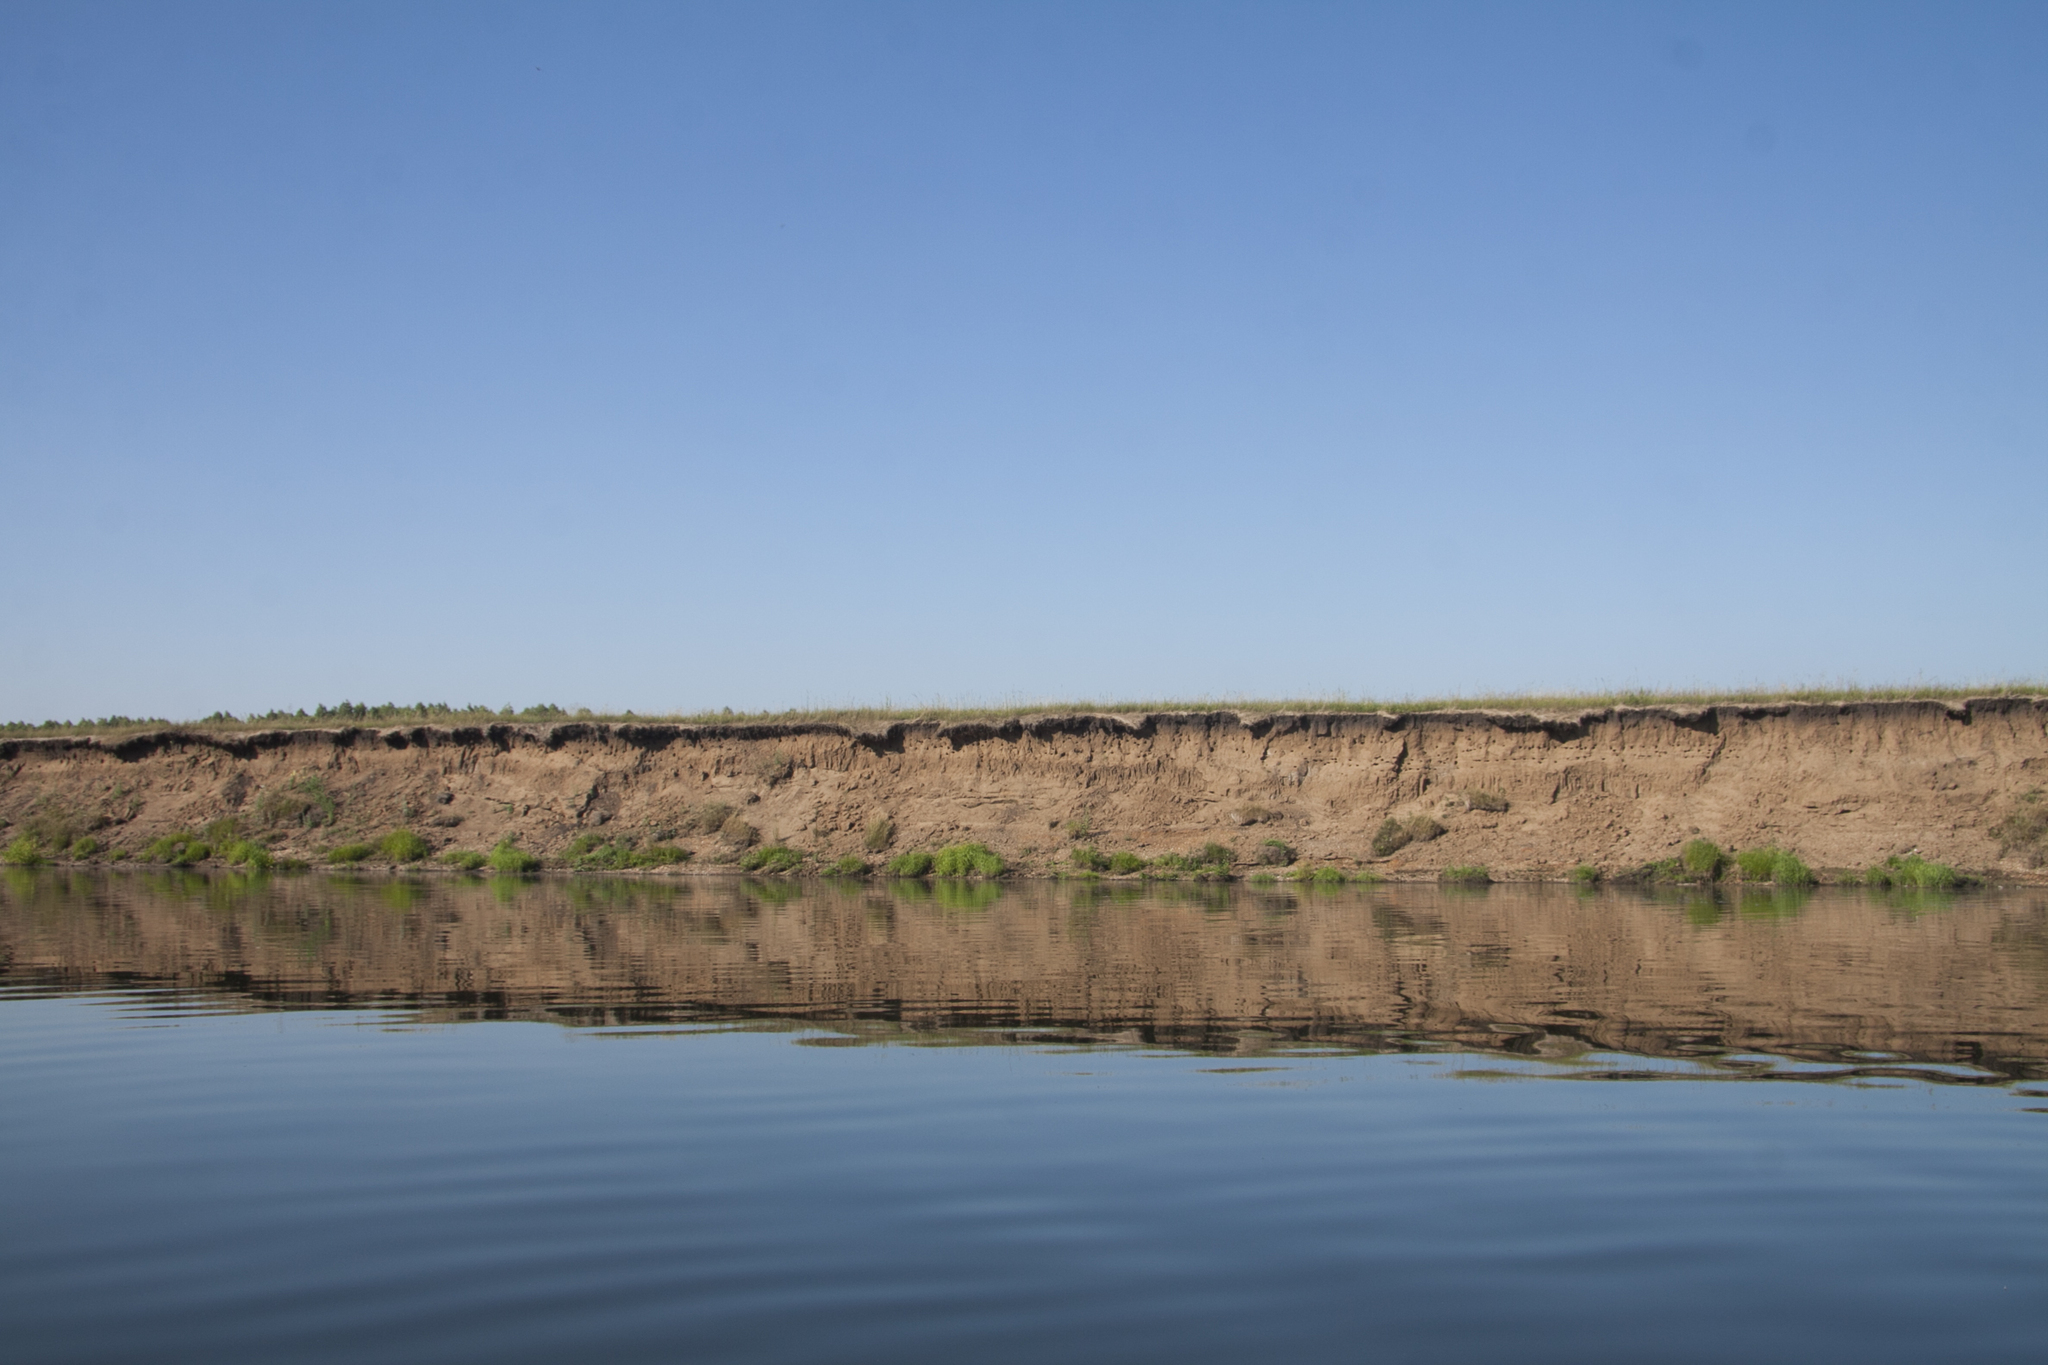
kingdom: Animalia
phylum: Chordata
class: Aves
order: Passeriformes
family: Hirundinidae
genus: Riparia
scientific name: Riparia riparia
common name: Sand martin
